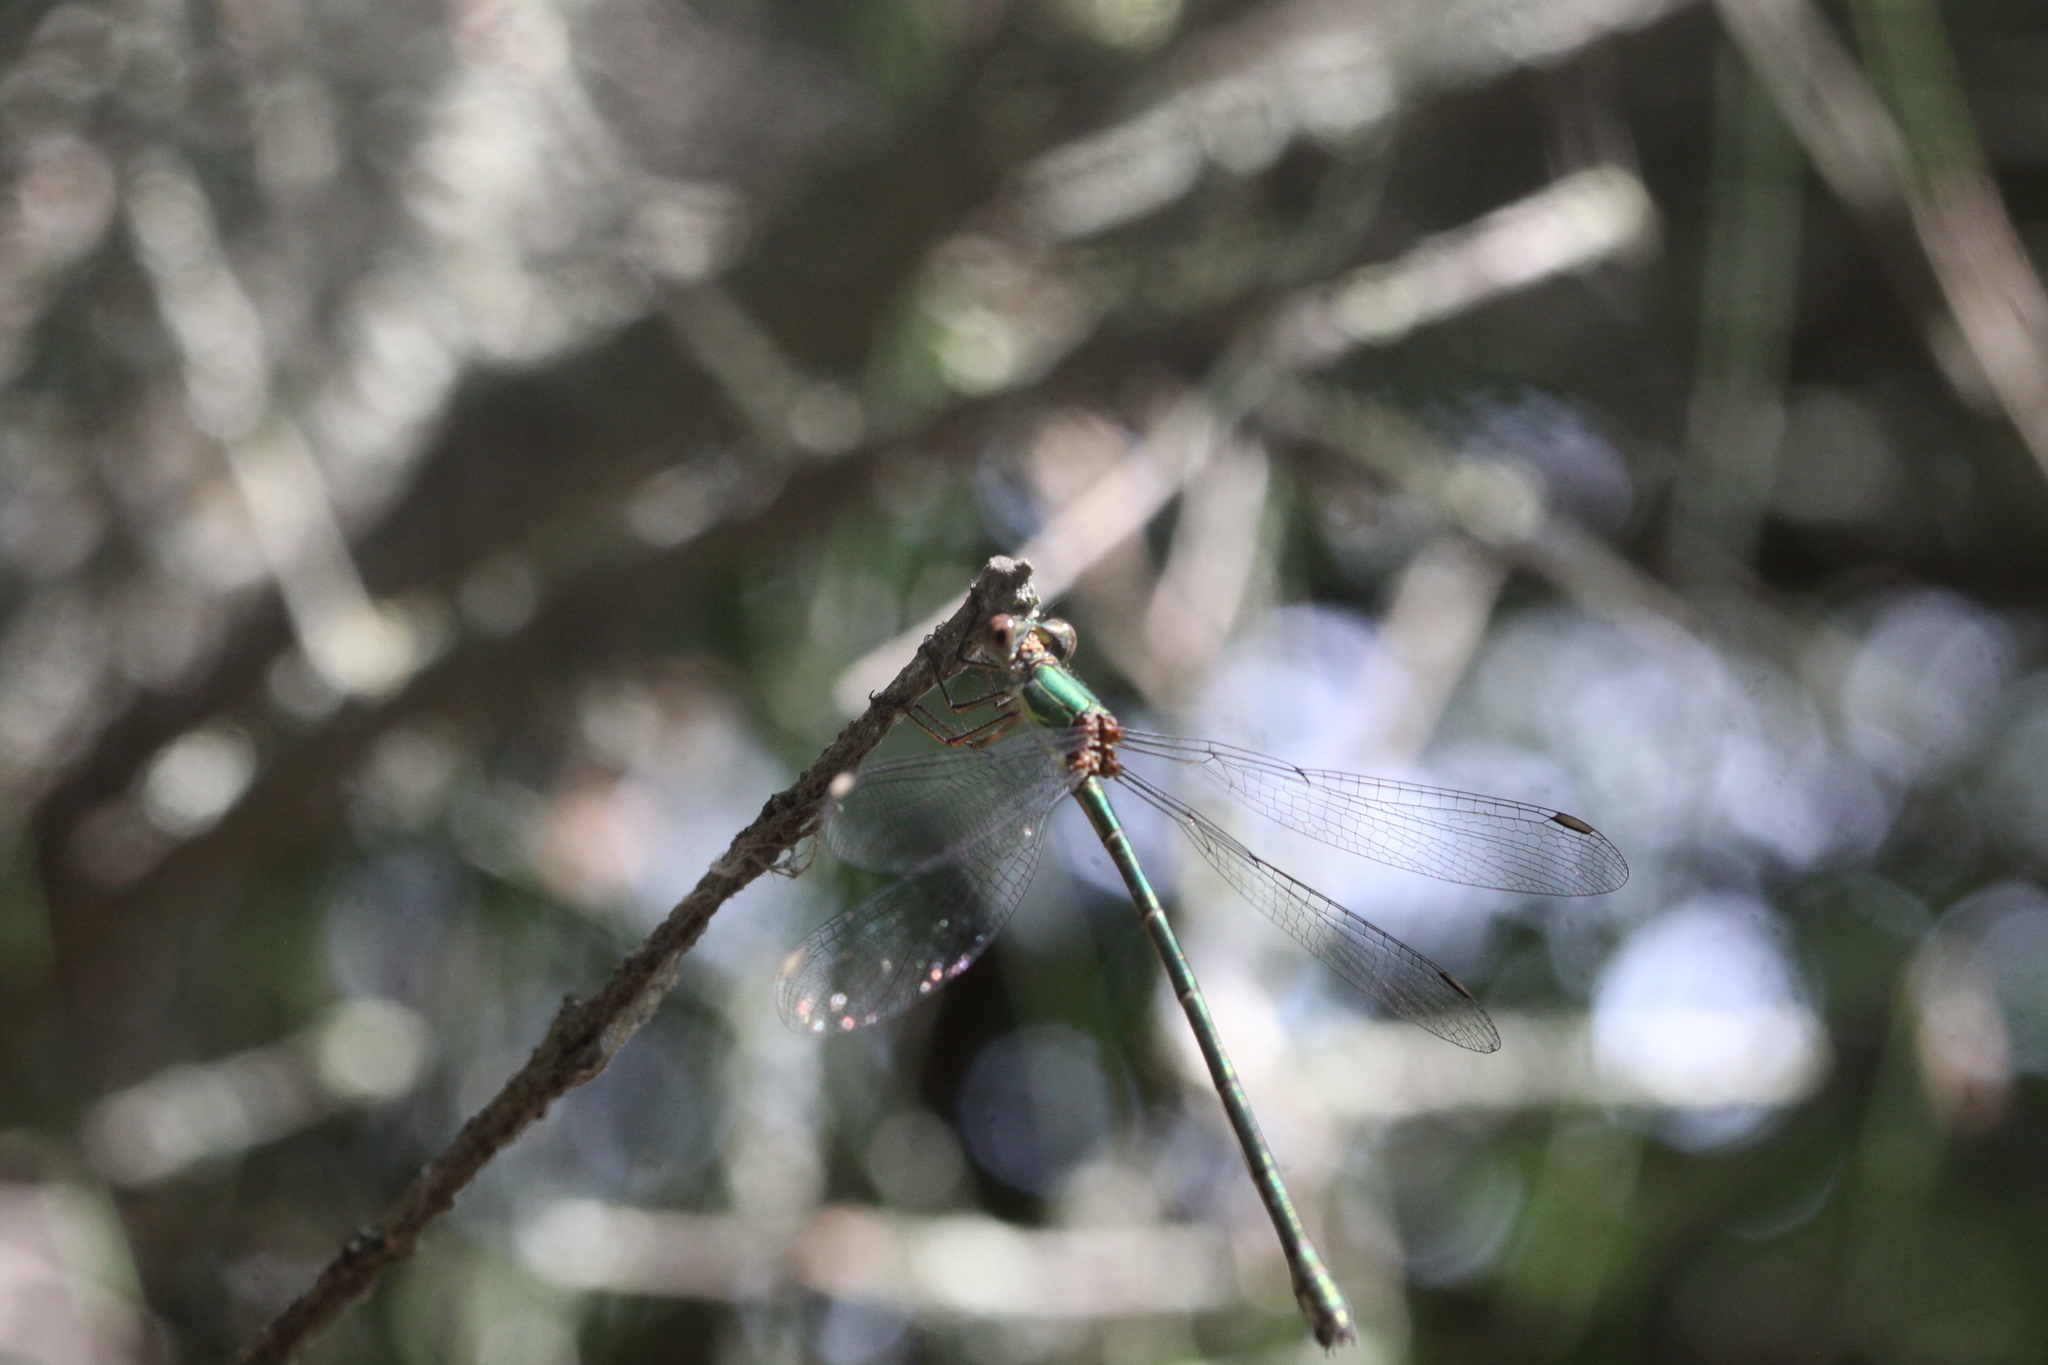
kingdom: Animalia
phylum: Arthropoda
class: Insecta
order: Odonata
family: Lestidae
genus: Chalcolestes
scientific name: Chalcolestes viridis
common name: Green emerald damselfly
